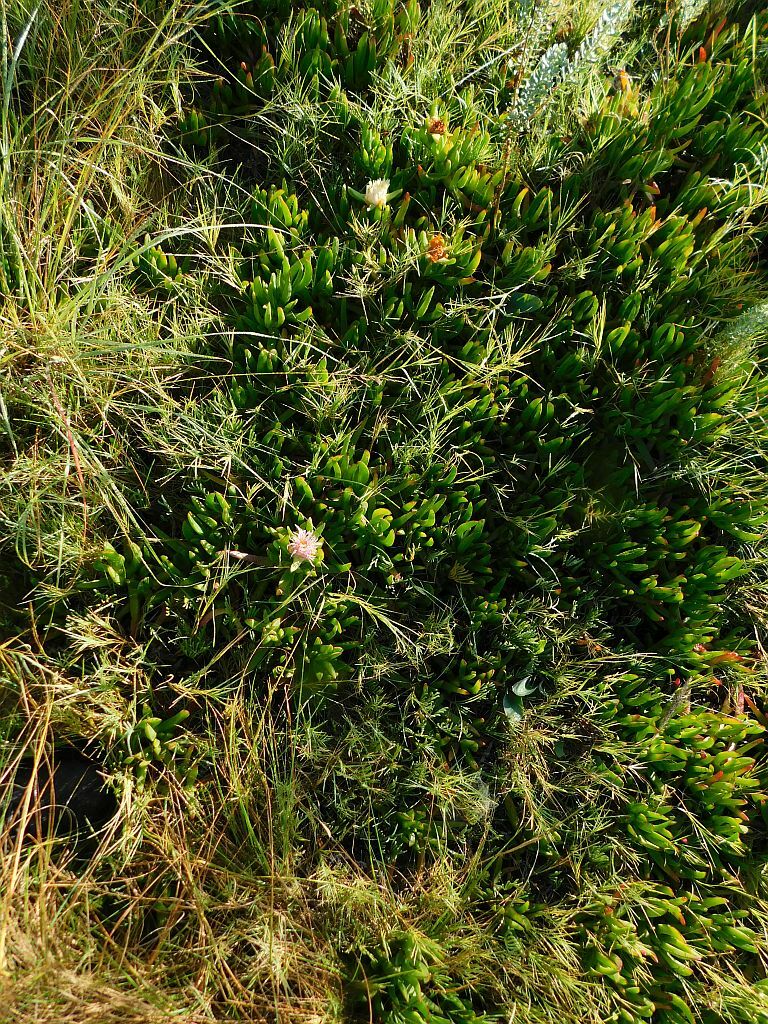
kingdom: Plantae
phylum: Tracheophyta
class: Magnoliopsida
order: Caryophyllales
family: Aizoaceae
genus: Carpobrotus
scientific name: Carpobrotus edulis
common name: Hottentot-fig
